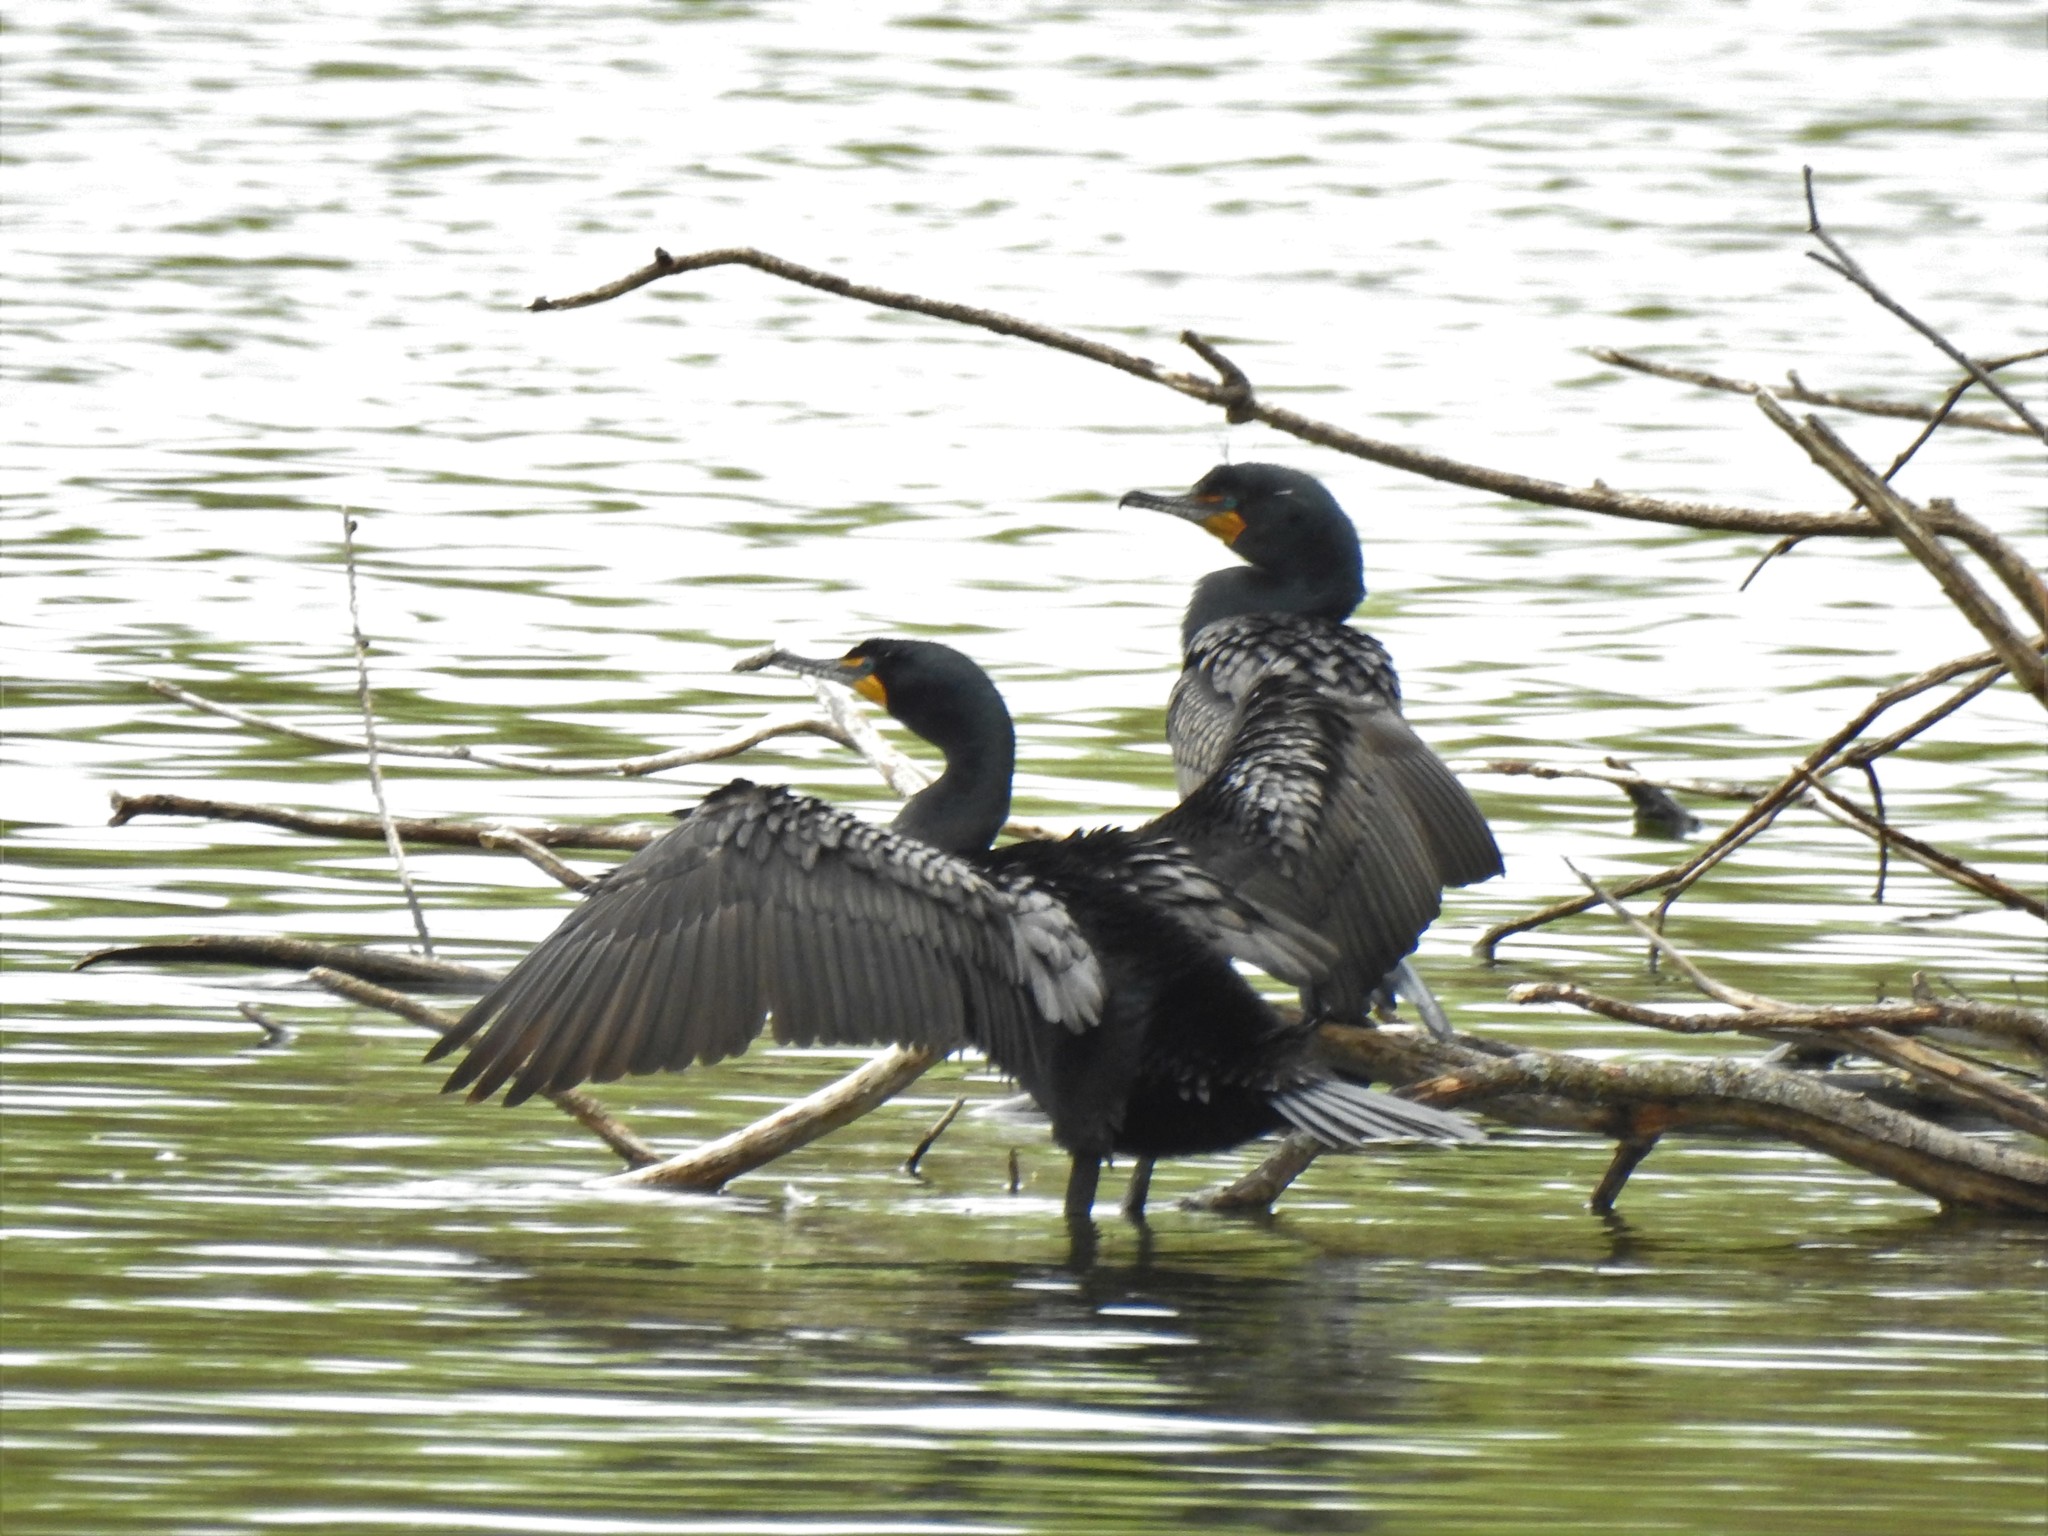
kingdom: Animalia
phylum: Chordata
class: Aves
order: Suliformes
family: Phalacrocoracidae
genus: Phalacrocorax
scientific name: Phalacrocorax auritus
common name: Double-crested cormorant
